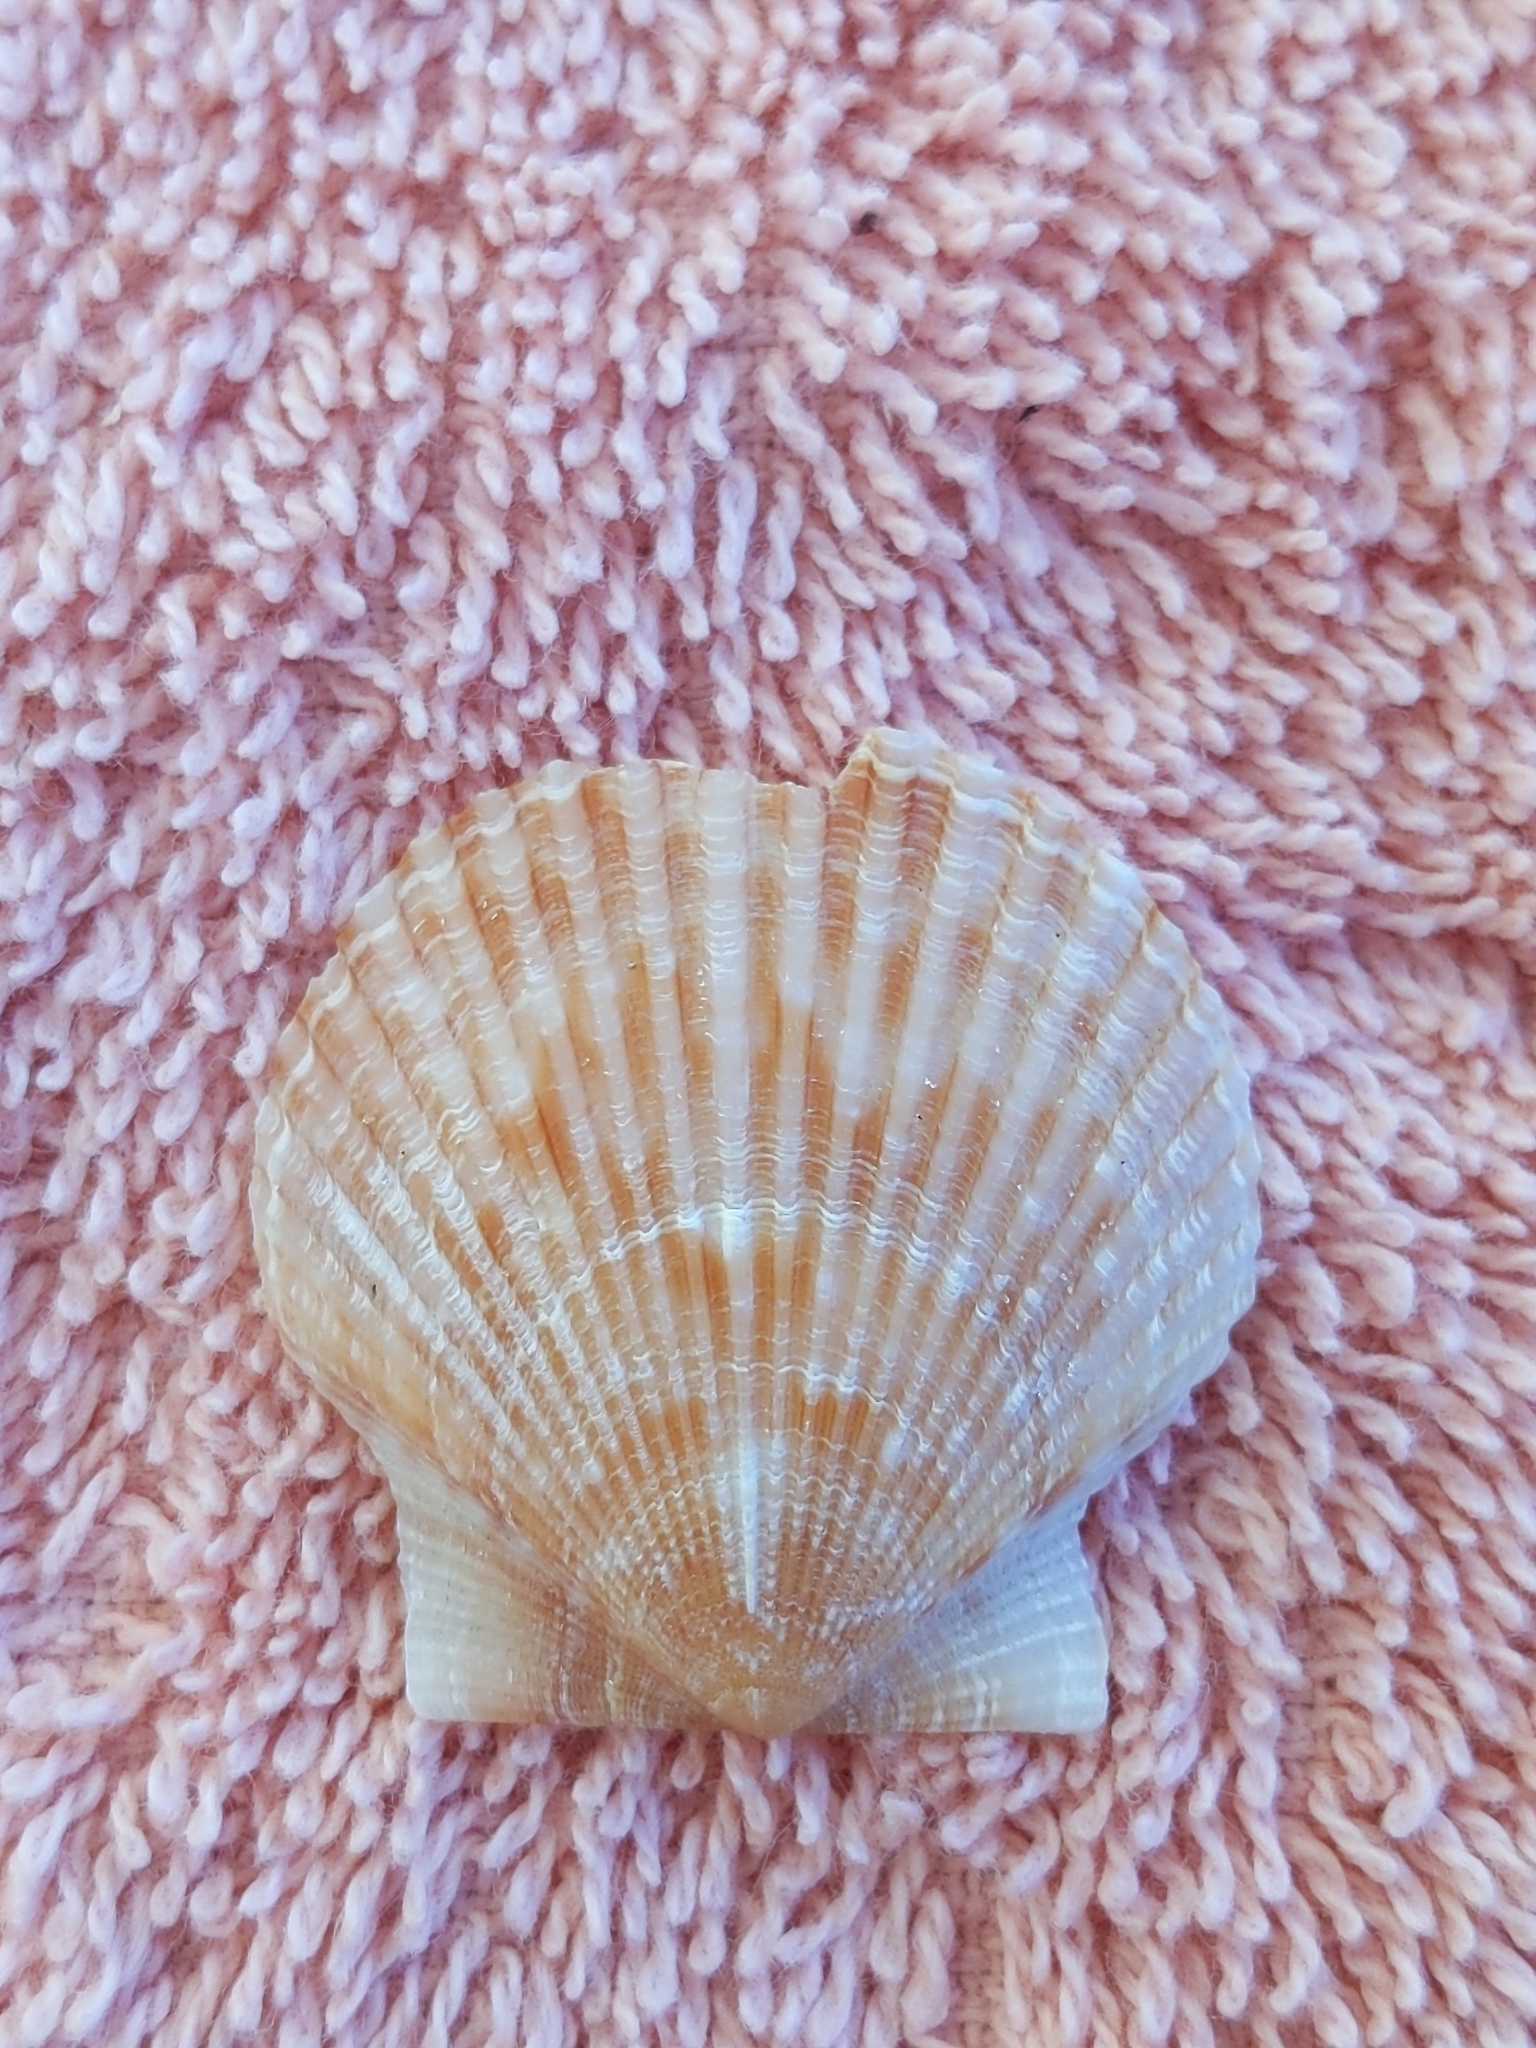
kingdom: Animalia
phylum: Mollusca
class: Bivalvia
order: Pectinida
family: Pectinidae
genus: Argopecten
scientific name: Argopecten gibbus
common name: Atlantic calico scallop
